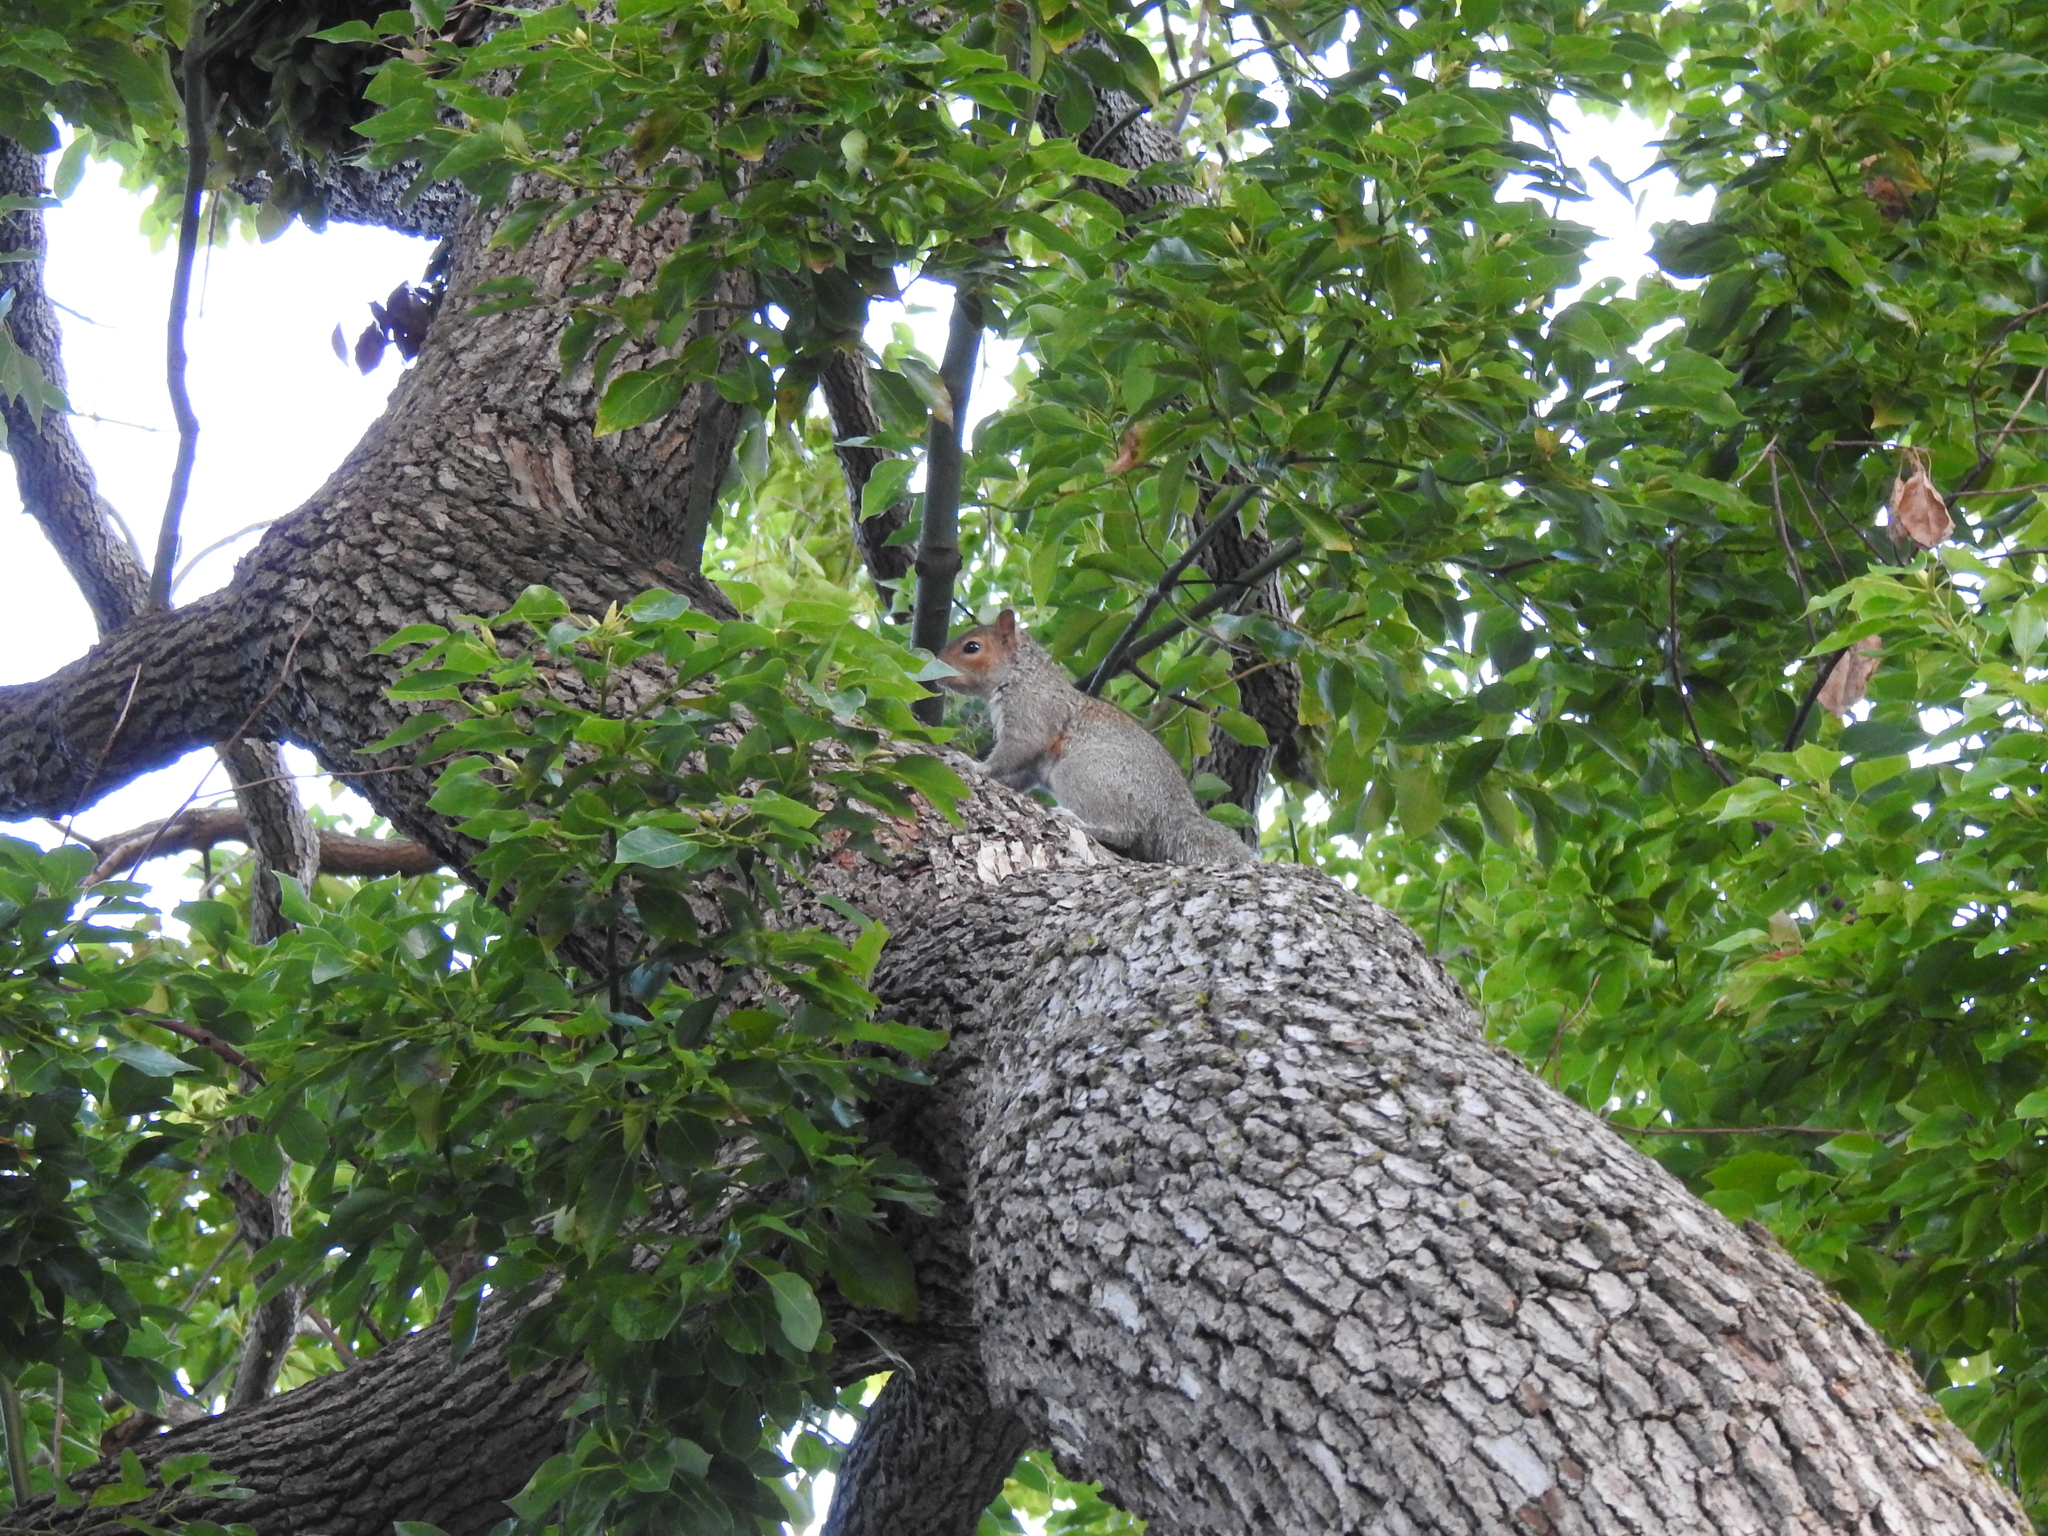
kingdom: Animalia
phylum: Chordata
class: Mammalia
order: Rodentia
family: Sciuridae
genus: Sciurus
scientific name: Sciurus carolinensis
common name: Eastern gray squirrel
